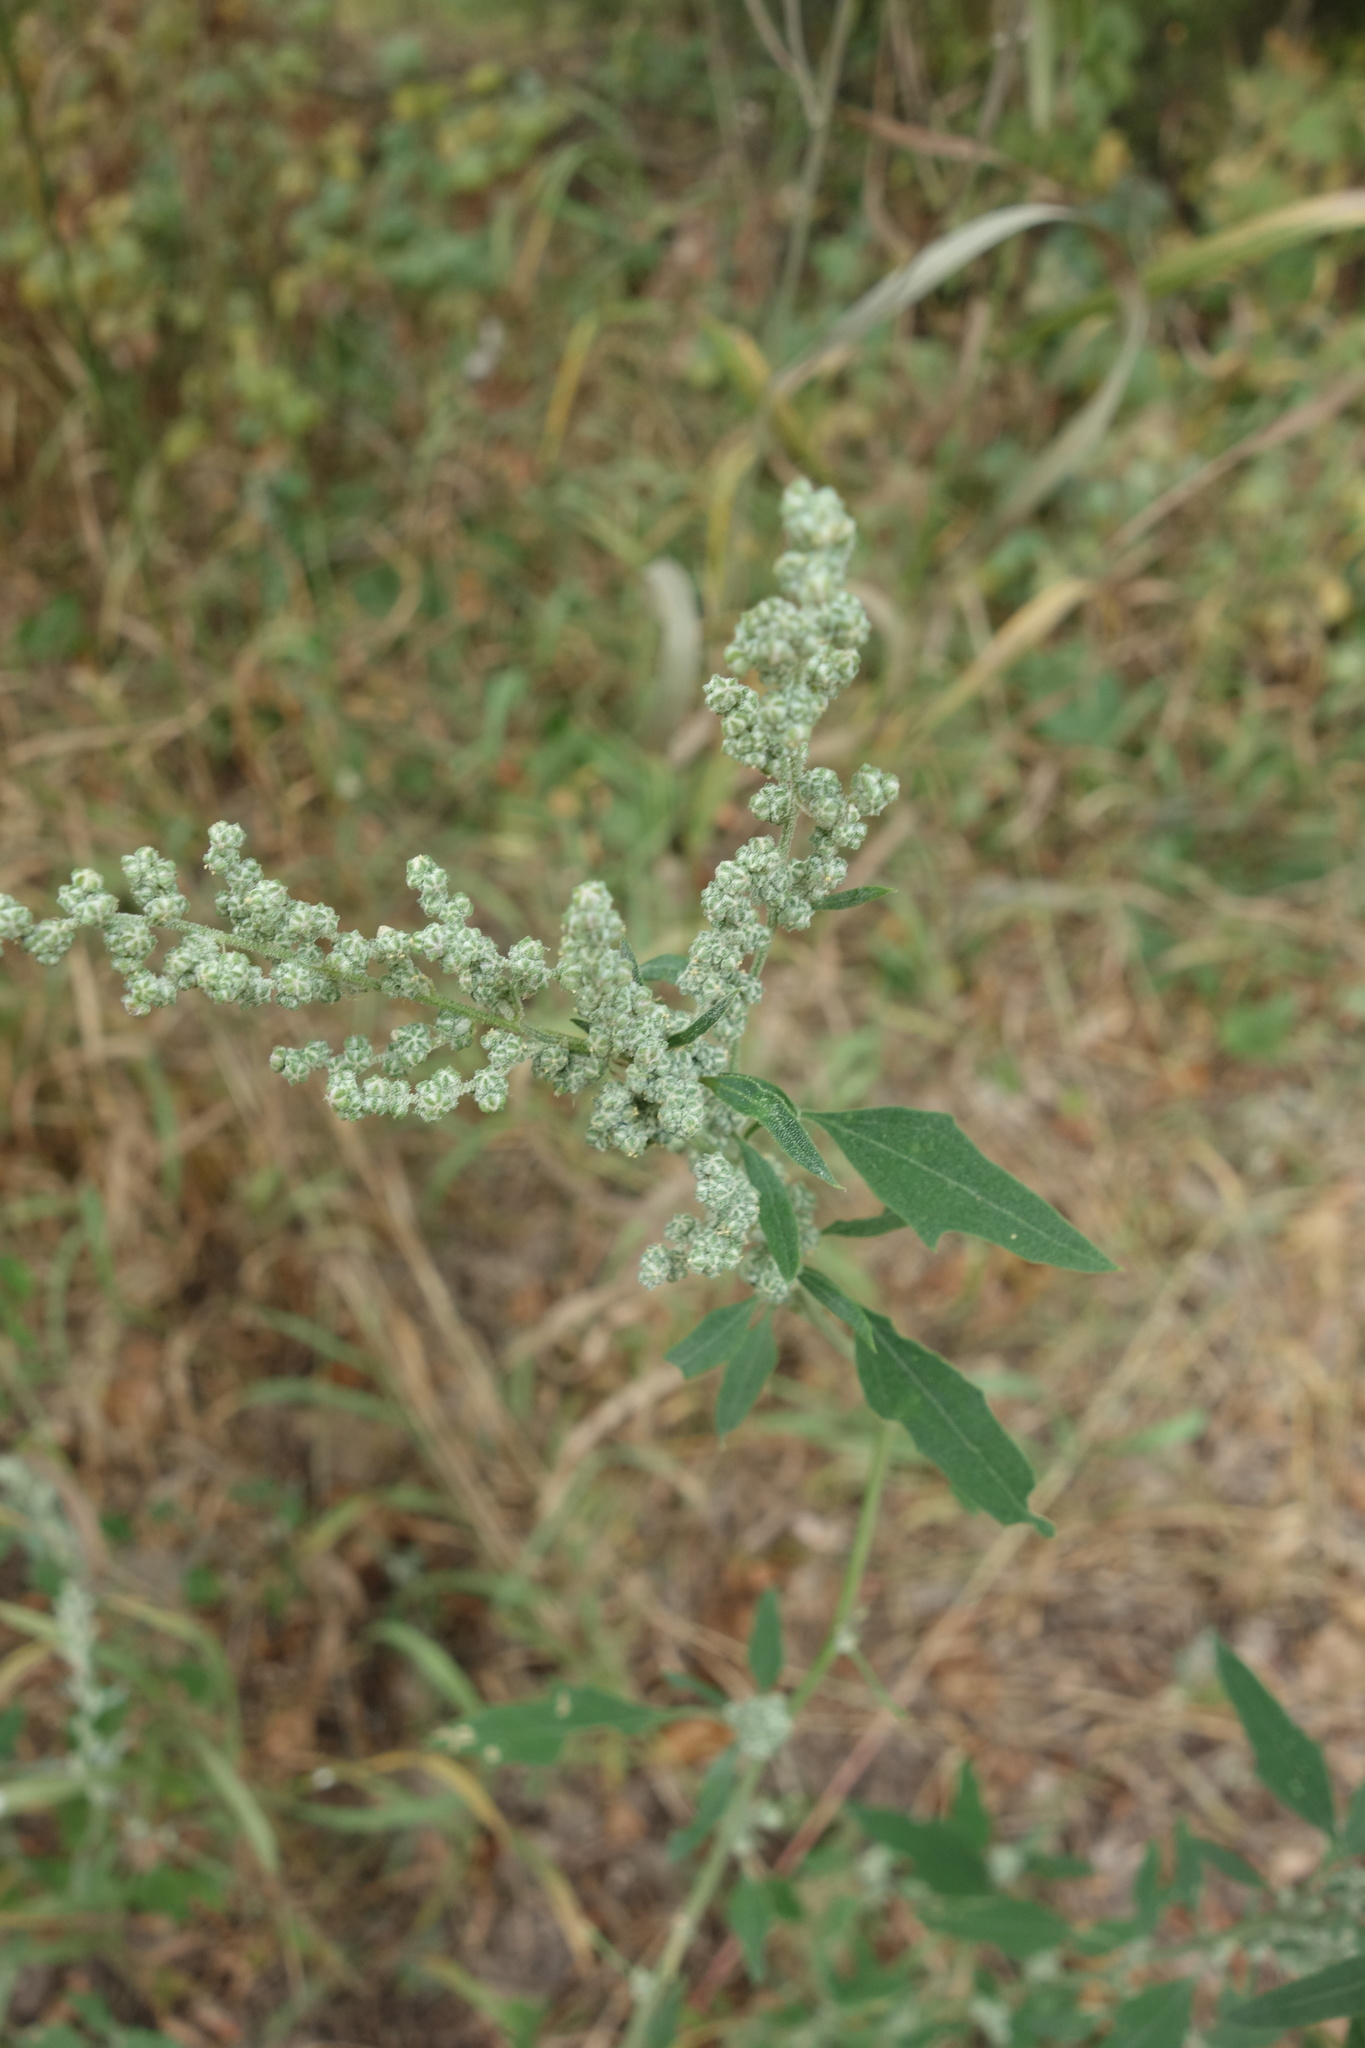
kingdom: Plantae
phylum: Tracheophyta
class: Magnoliopsida
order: Caryophyllales
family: Amaranthaceae
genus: Chenopodium
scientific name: Chenopodium album
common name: Fat-hen
